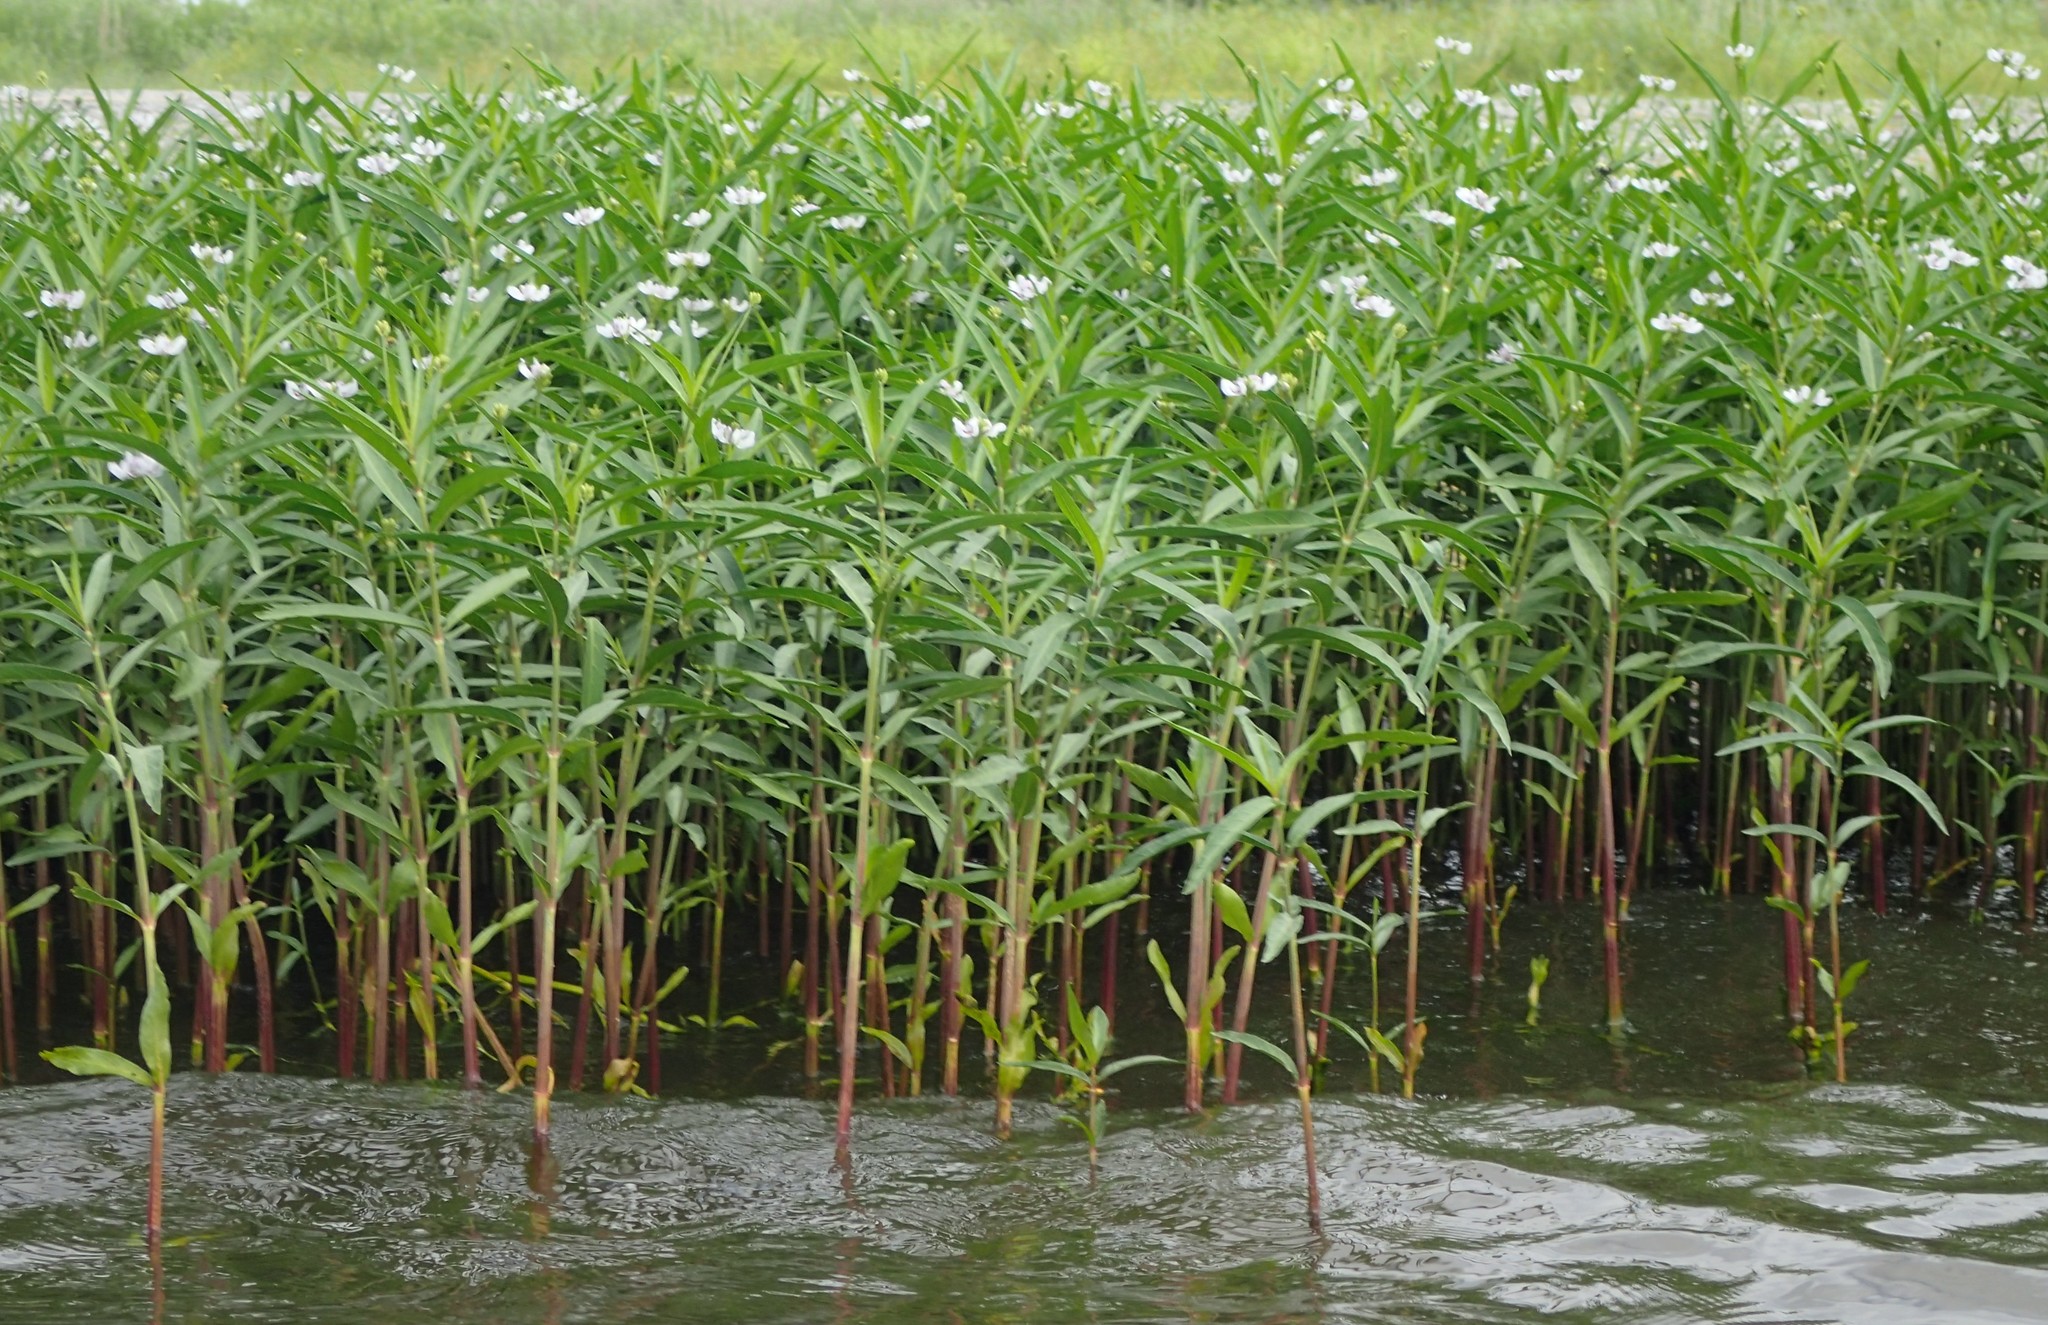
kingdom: Plantae
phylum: Tracheophyta
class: Magnoliopsida
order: Lamiales
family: Acanthaceae
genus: Dianthera
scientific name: Dianthera americana
